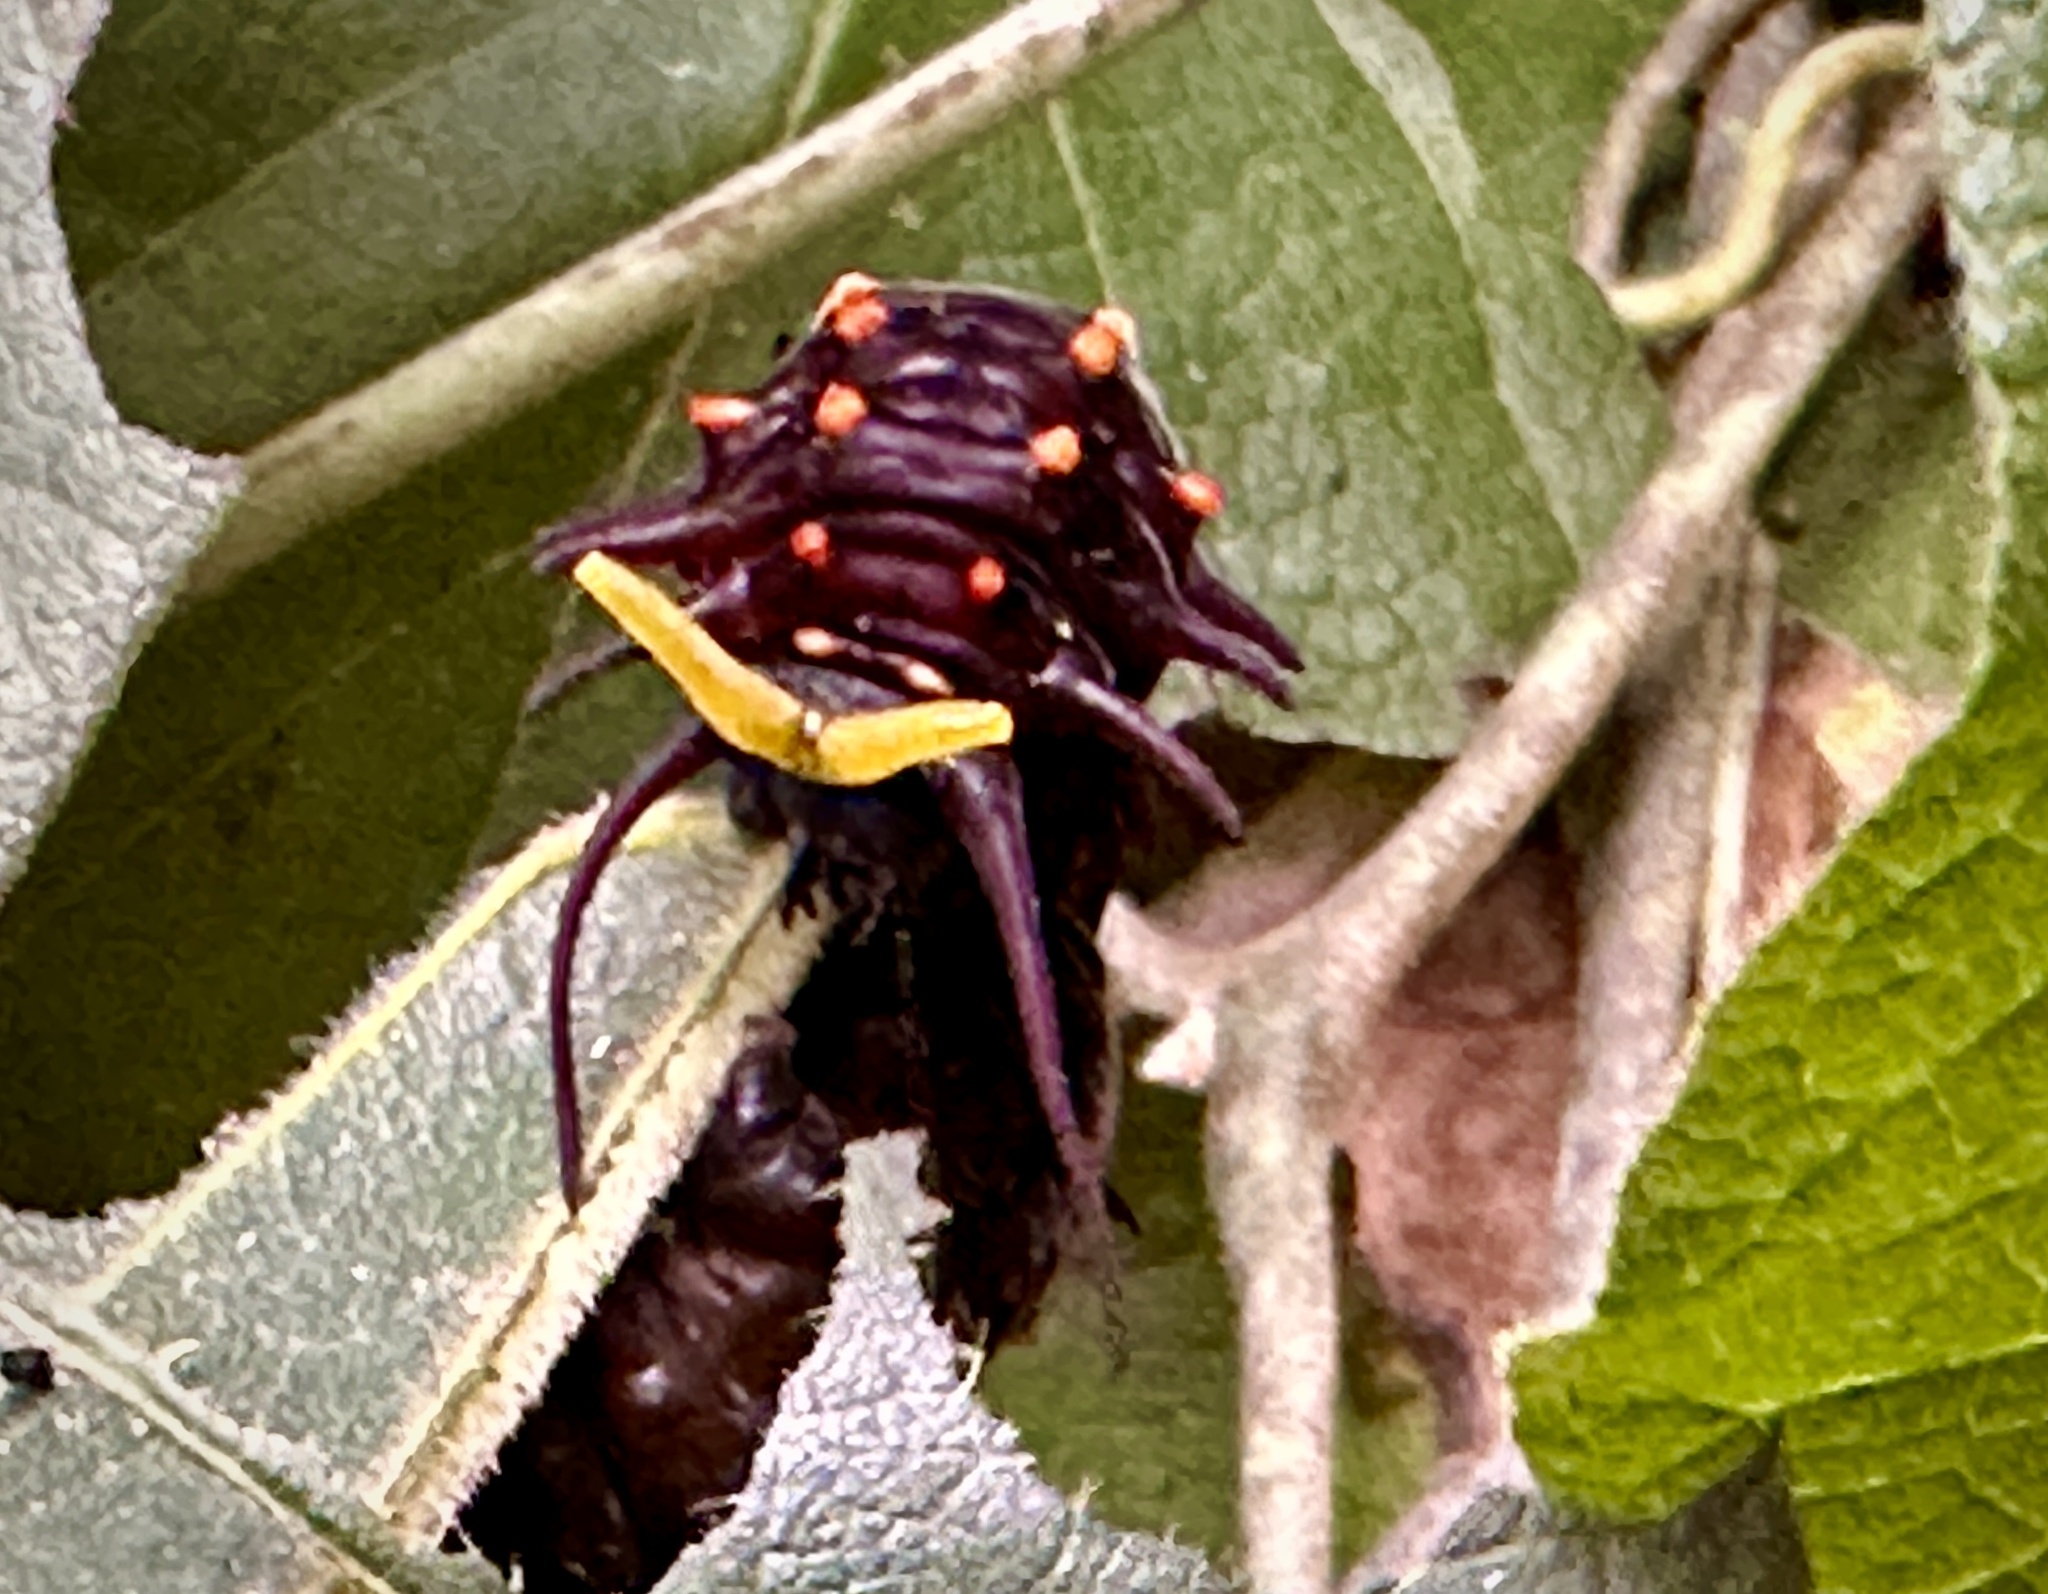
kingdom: Animalia
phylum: Arthropoda
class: Insecta
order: Lepidoptera
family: Papilionidae
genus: Battus
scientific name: Battus philenor
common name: Pipevine swallowtail
